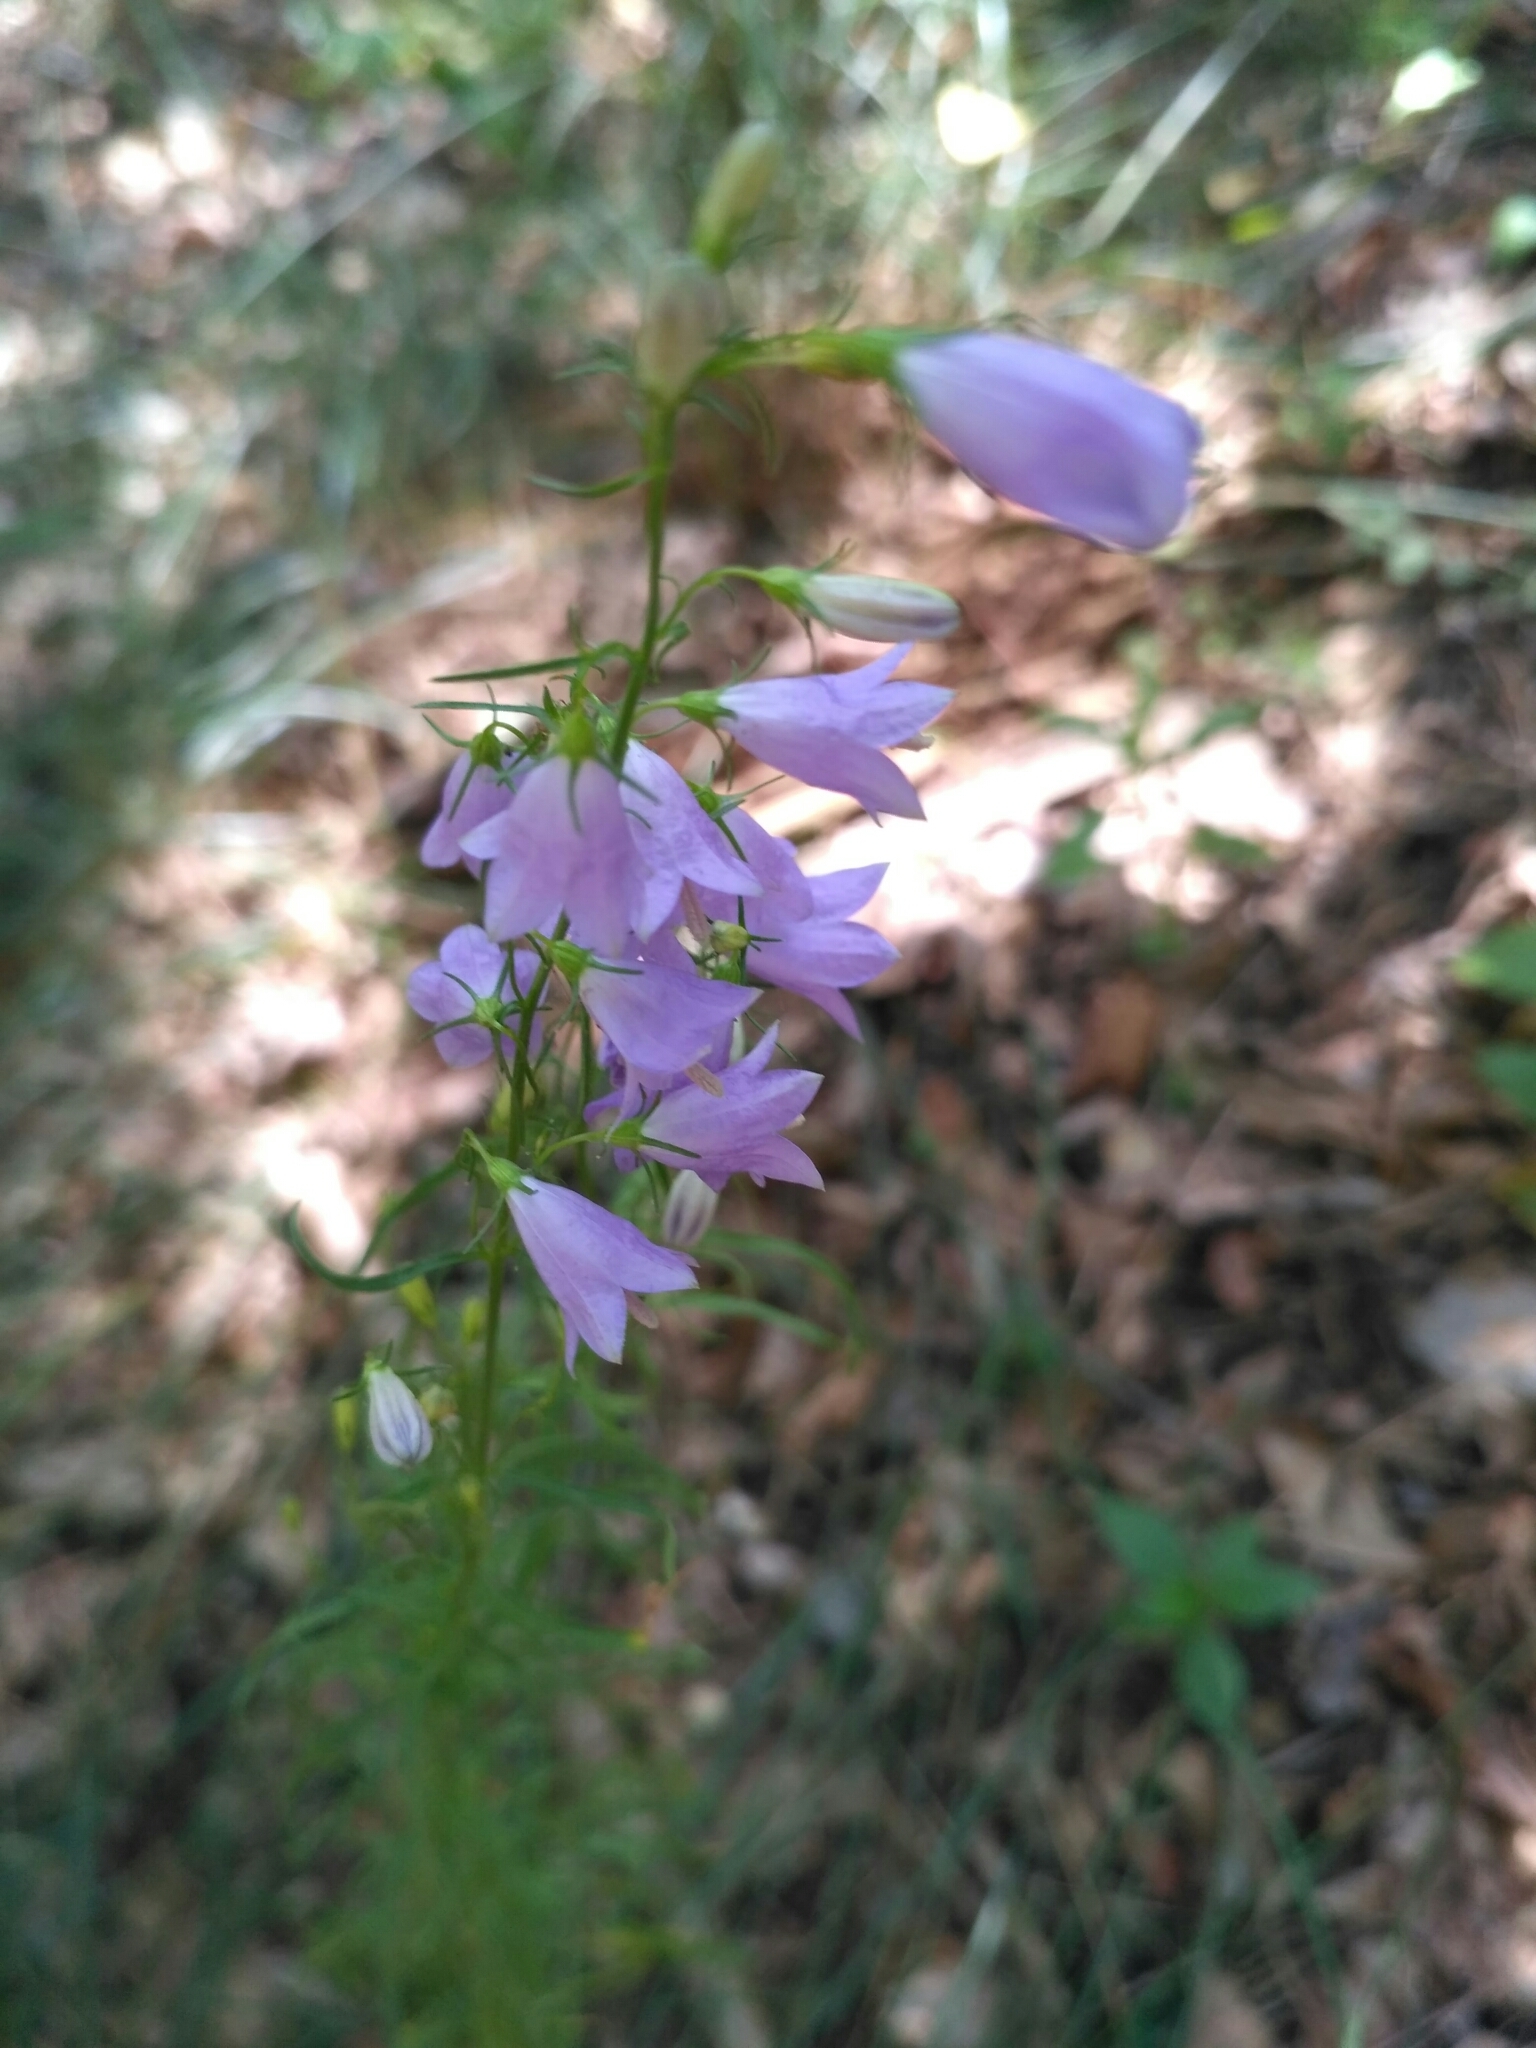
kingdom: Plantae
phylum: Tracheophyta
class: Magnoliopsida
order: Asterales
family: Campanulaceae
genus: Campanula
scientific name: Campanula rotundifolia
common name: Harebell
